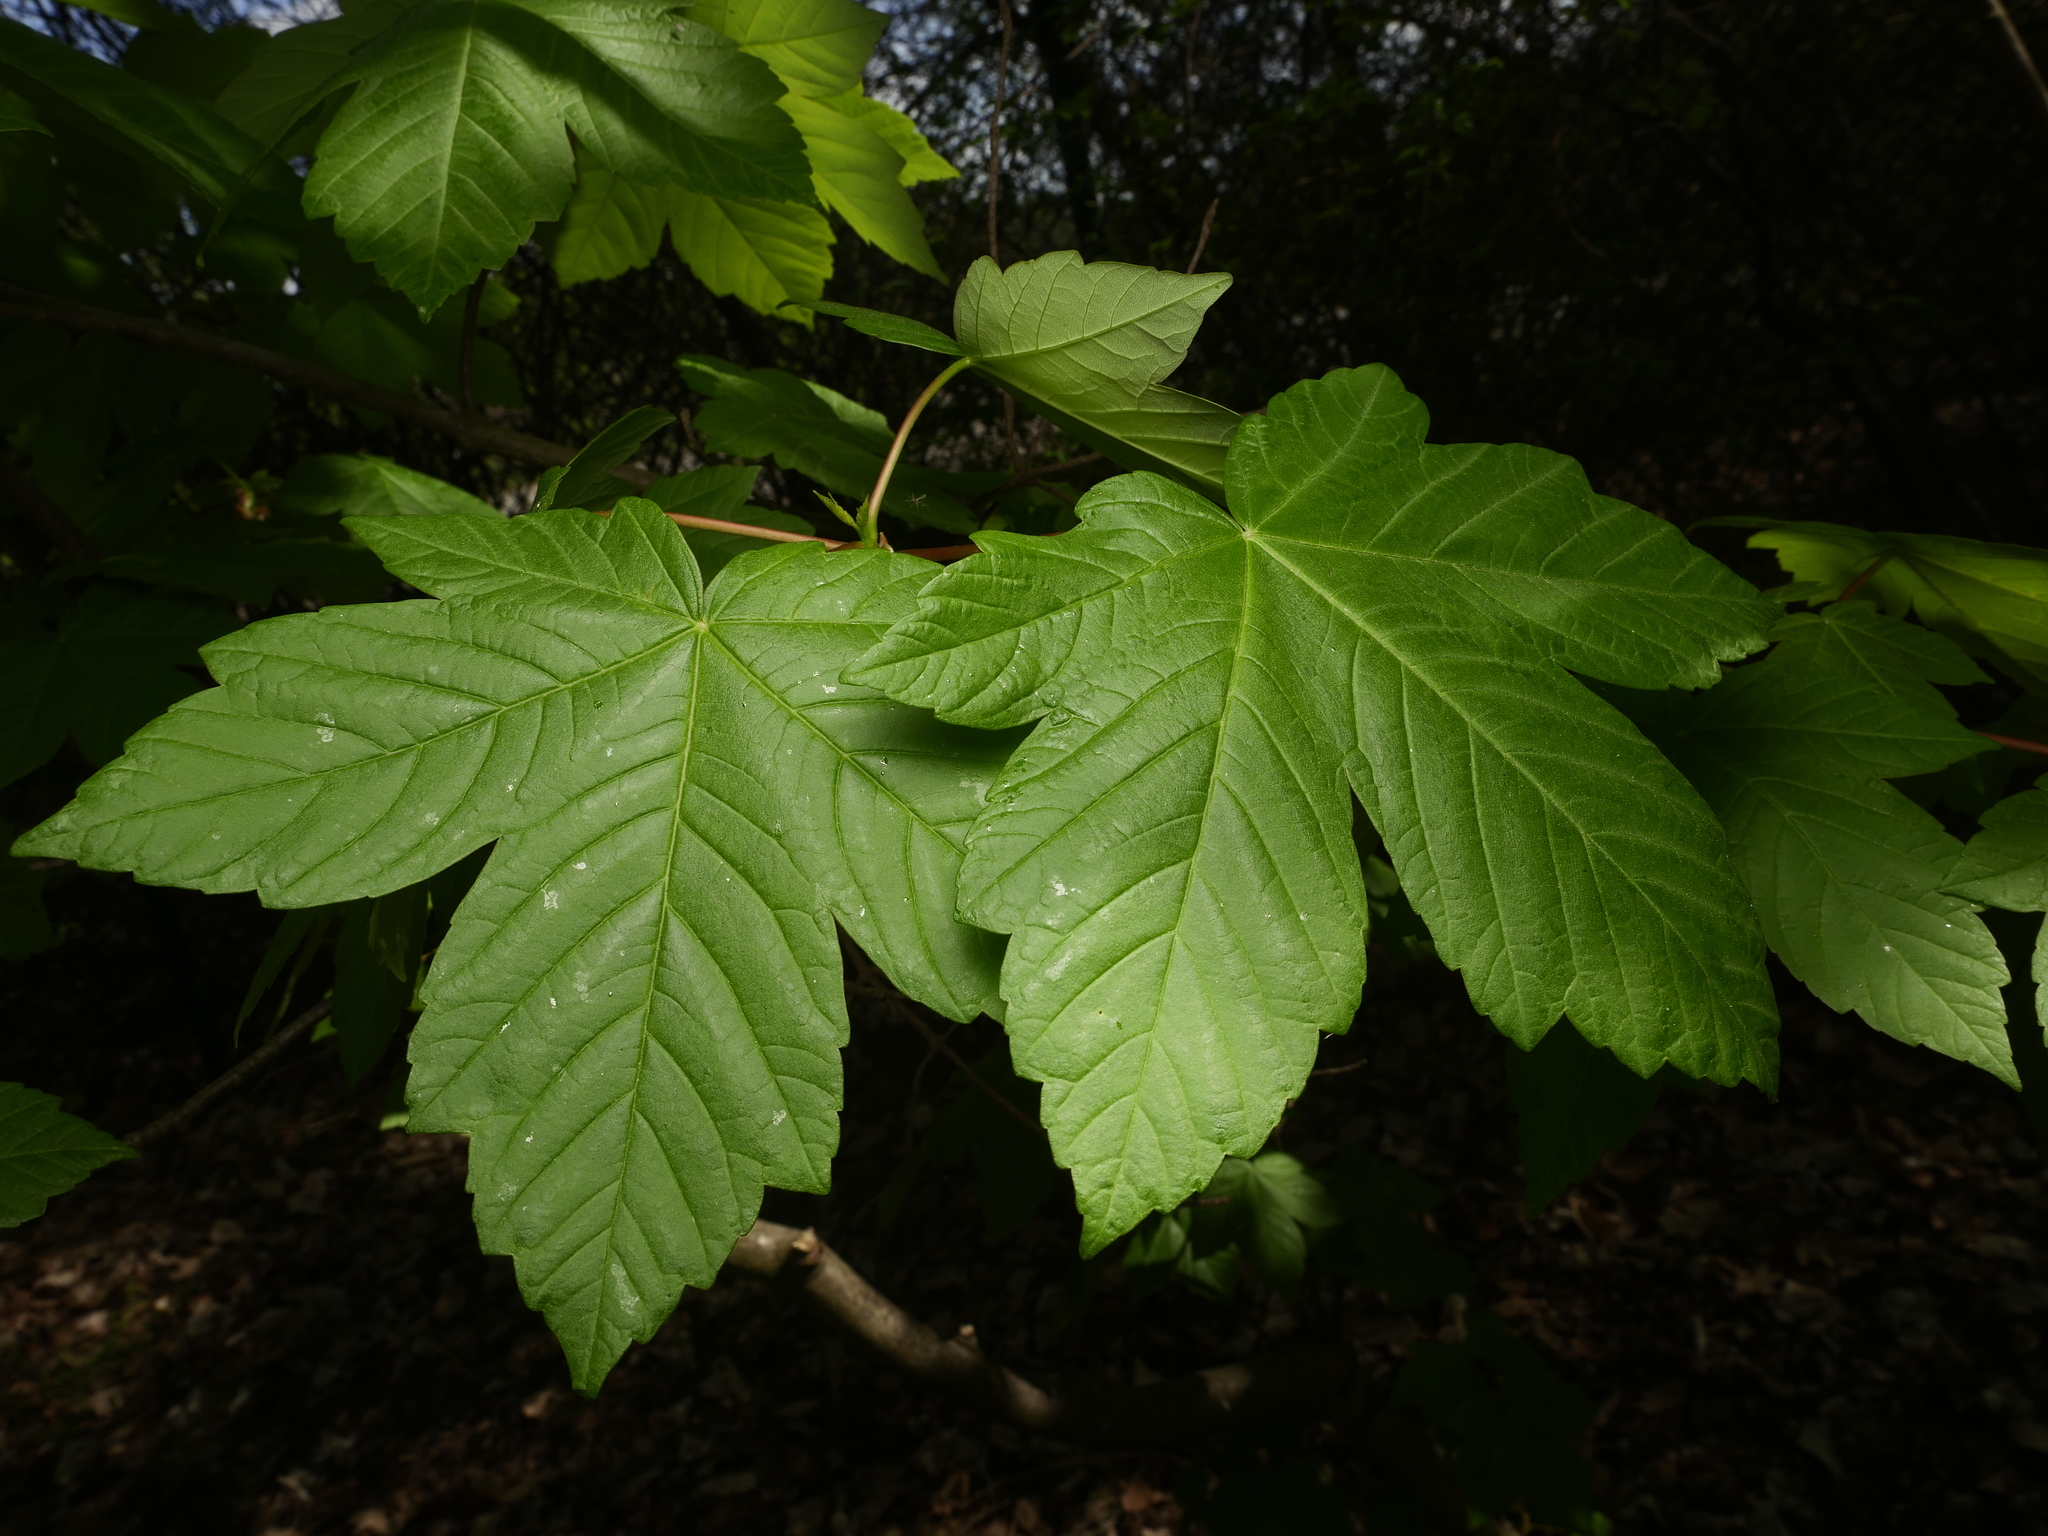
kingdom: Plantae
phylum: Tracheophyta
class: Magnoliopsida
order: Sapindales
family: Sapindaceae
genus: Acer
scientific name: Acer pseudoplatanus
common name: Sycamore
